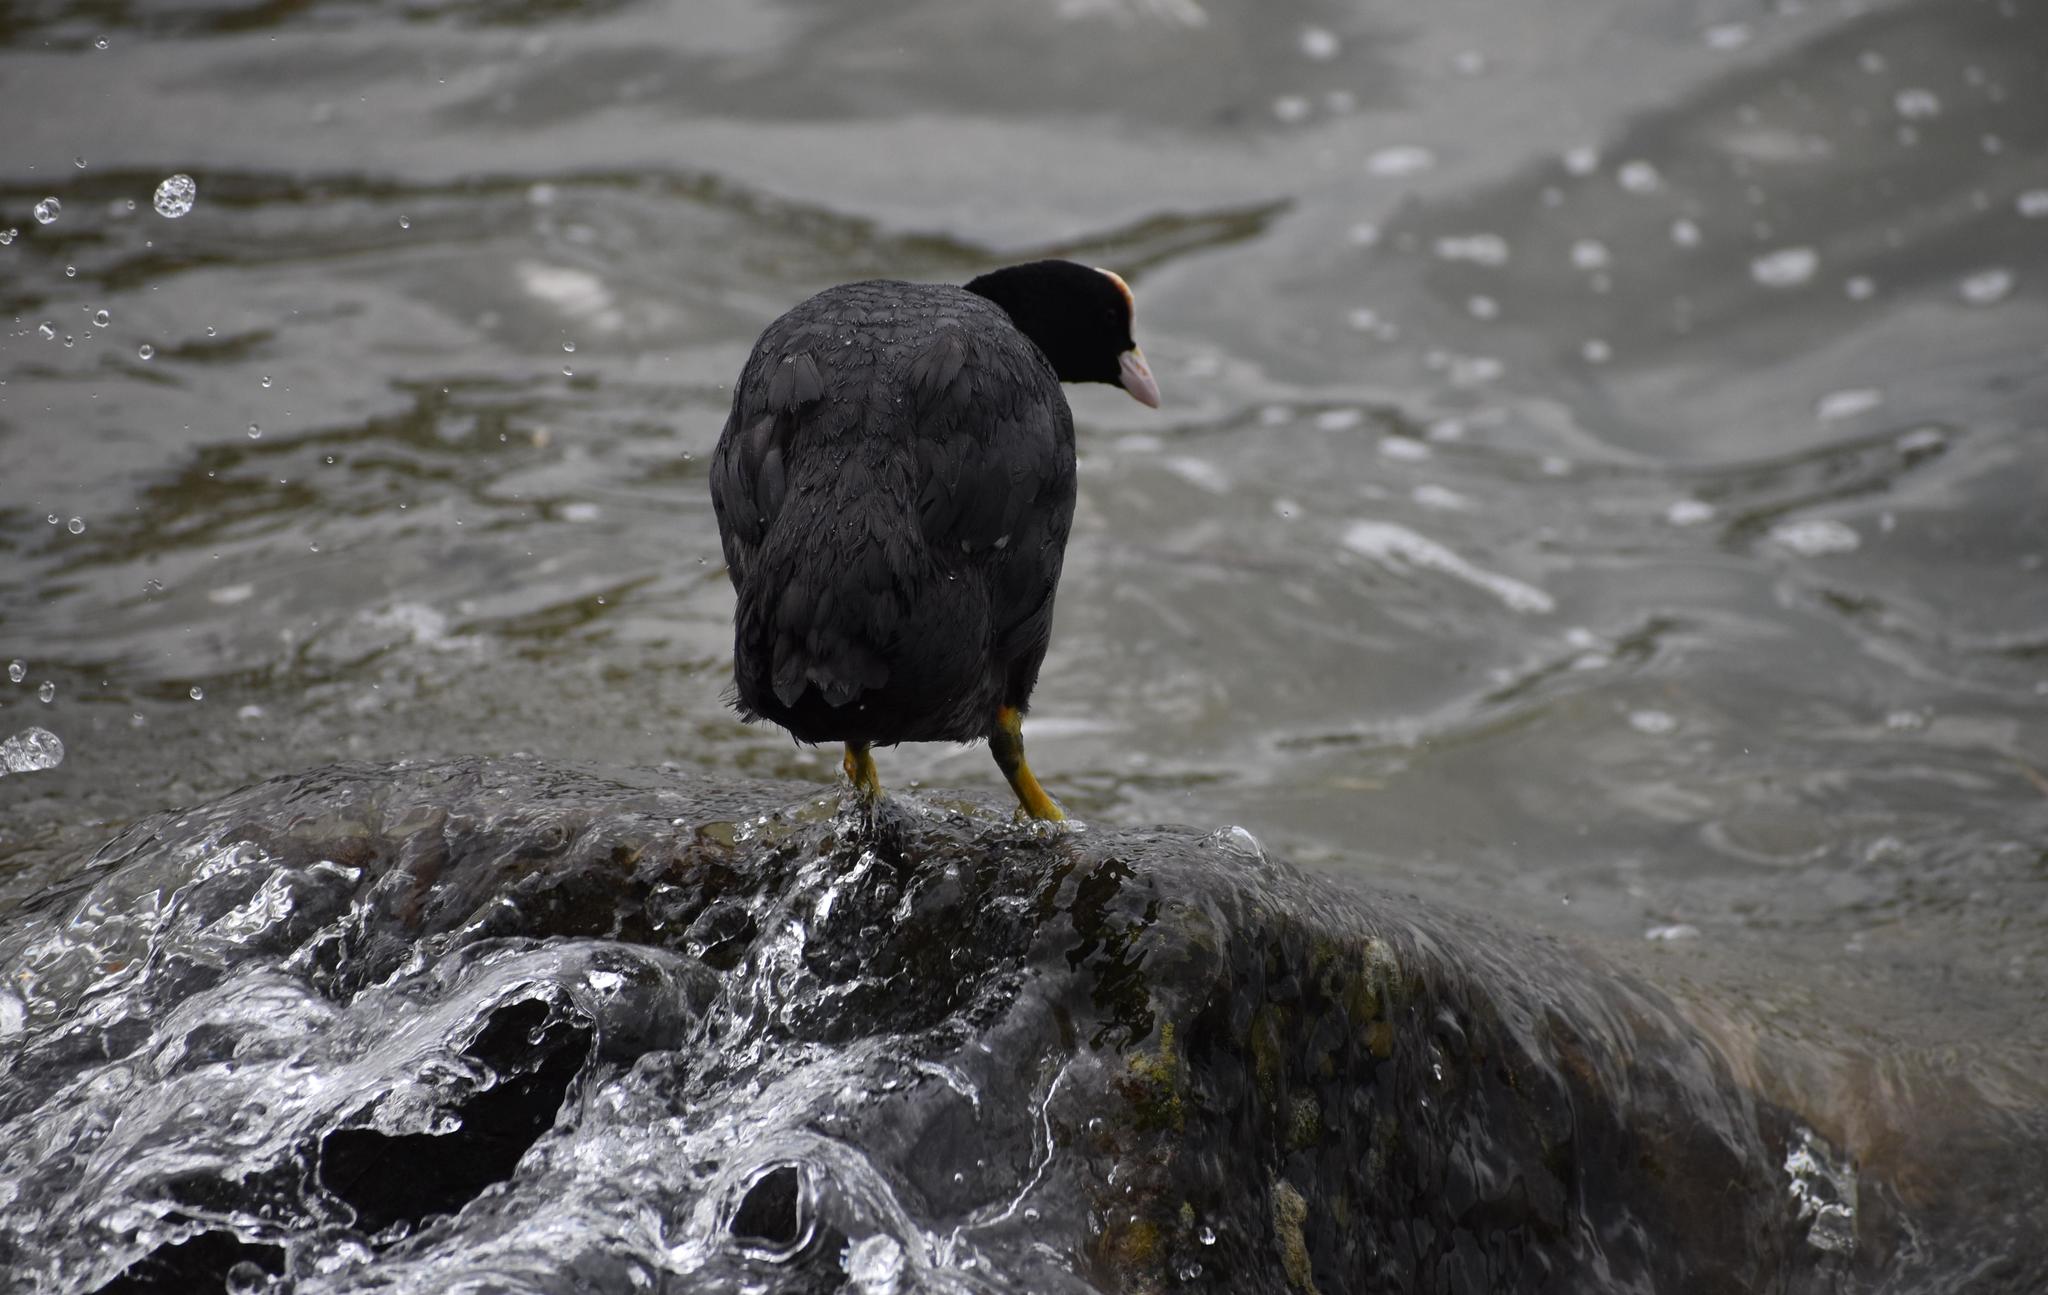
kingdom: Animalia
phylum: Chordata
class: Aves
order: Gruiformes
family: Rallidae
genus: Fulica
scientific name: Fulica atra
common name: Eurasian coot
